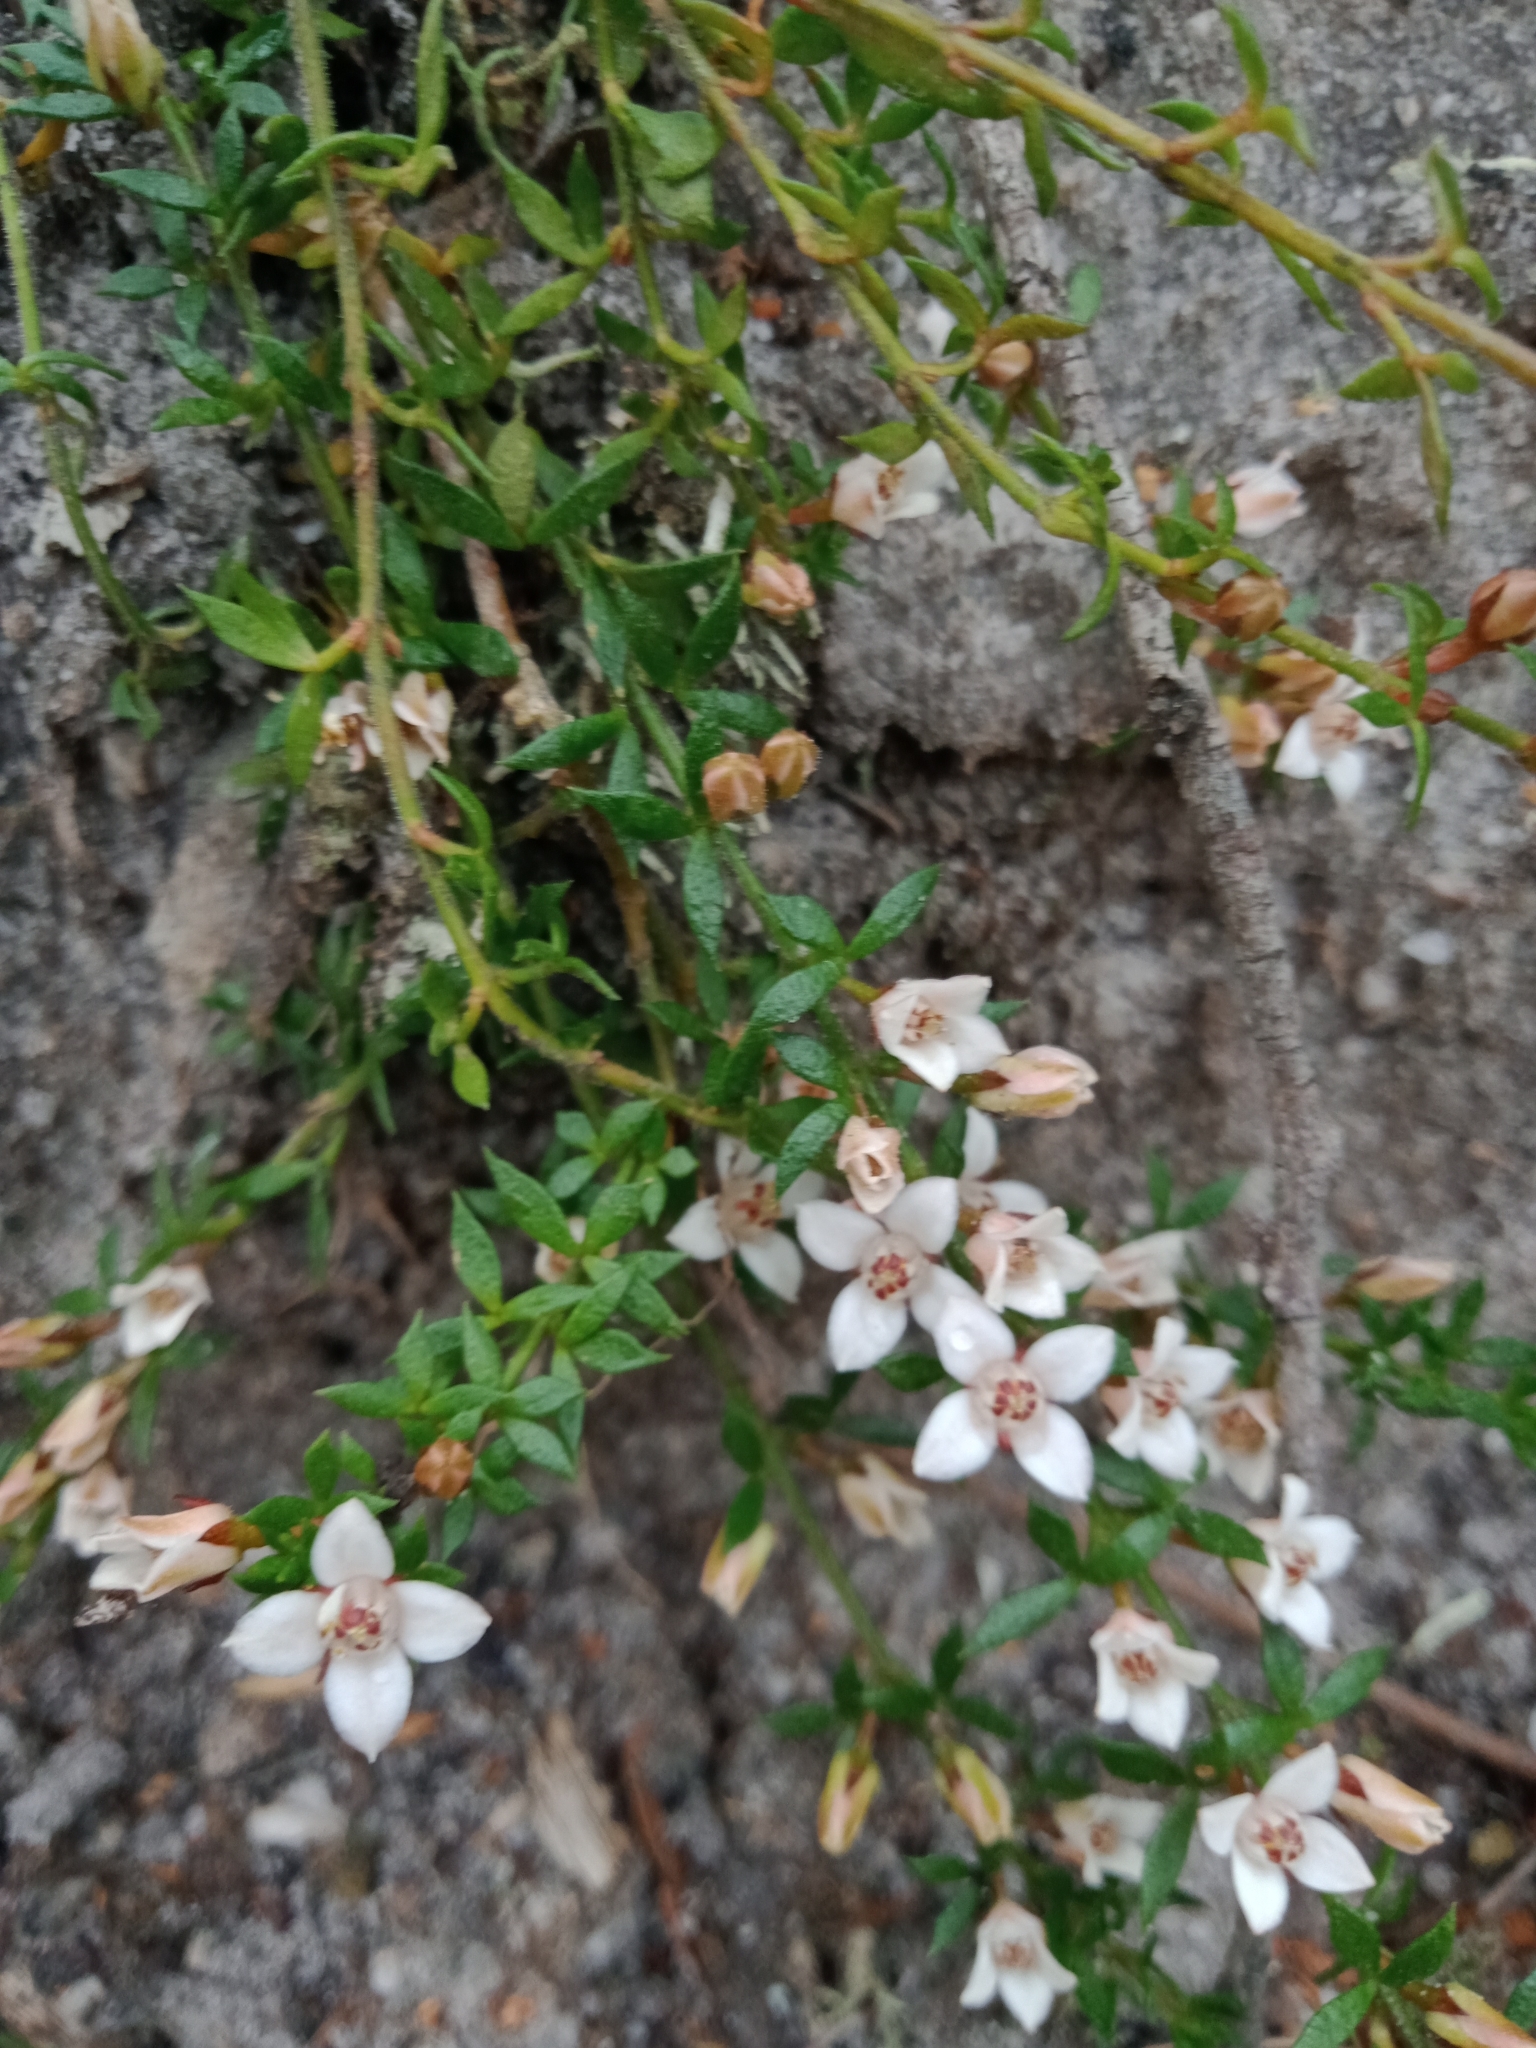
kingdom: Plantae
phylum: Tracheophyta
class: Magnoliopsida
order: Sapindales
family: Rutaceae
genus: Cyanothamnus
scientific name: Cyanothamnus nanus
